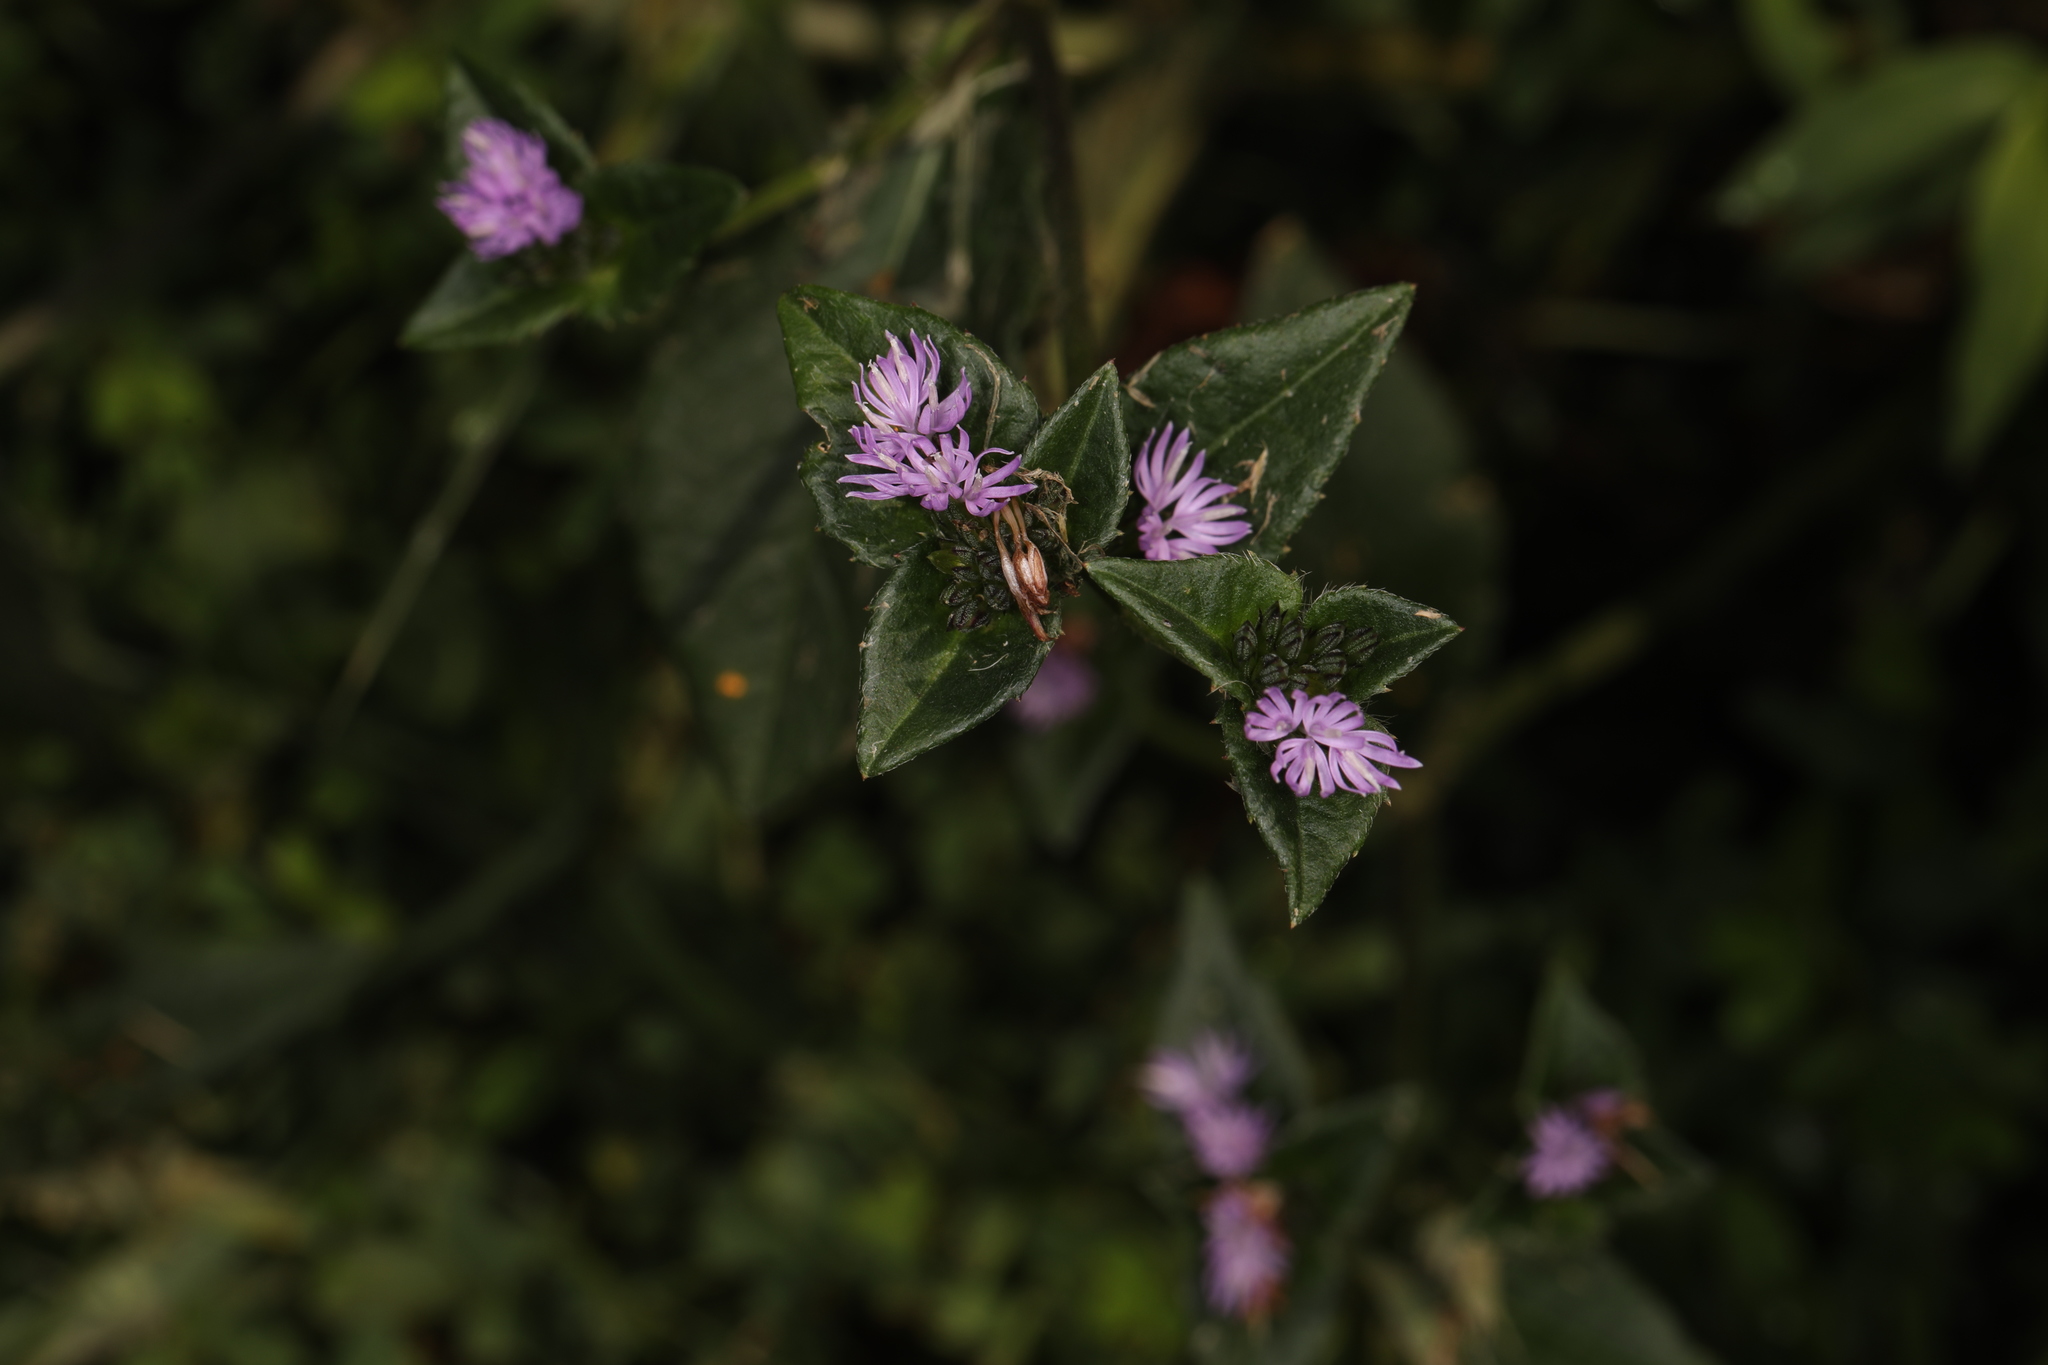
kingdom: Plantae
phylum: Tracheophyta
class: Magnoliopsida
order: Asterales
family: Asteraceae
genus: Elephantopus
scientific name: Elephantopus carolinianus
